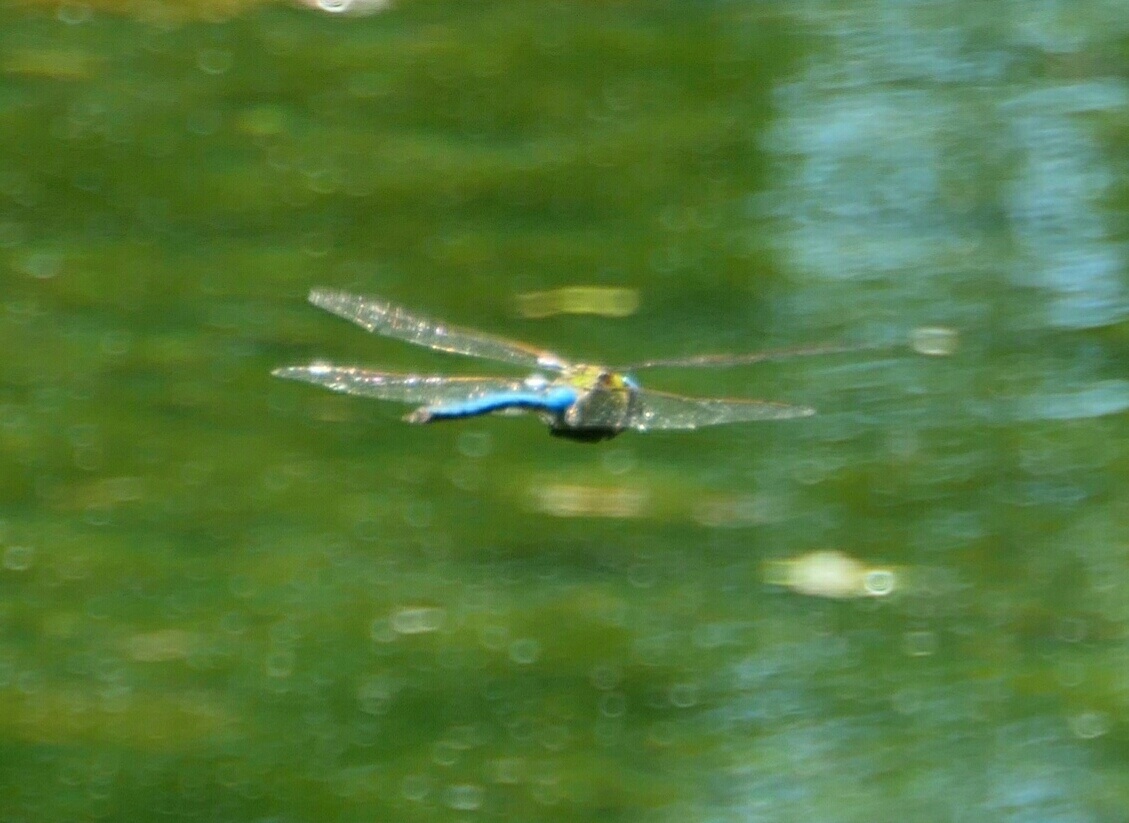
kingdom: Animalia
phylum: Arthropoda
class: Insecta
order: Odonata
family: Aeshnidae
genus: Anax
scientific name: Anax imperator
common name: Emperor dragonfly
